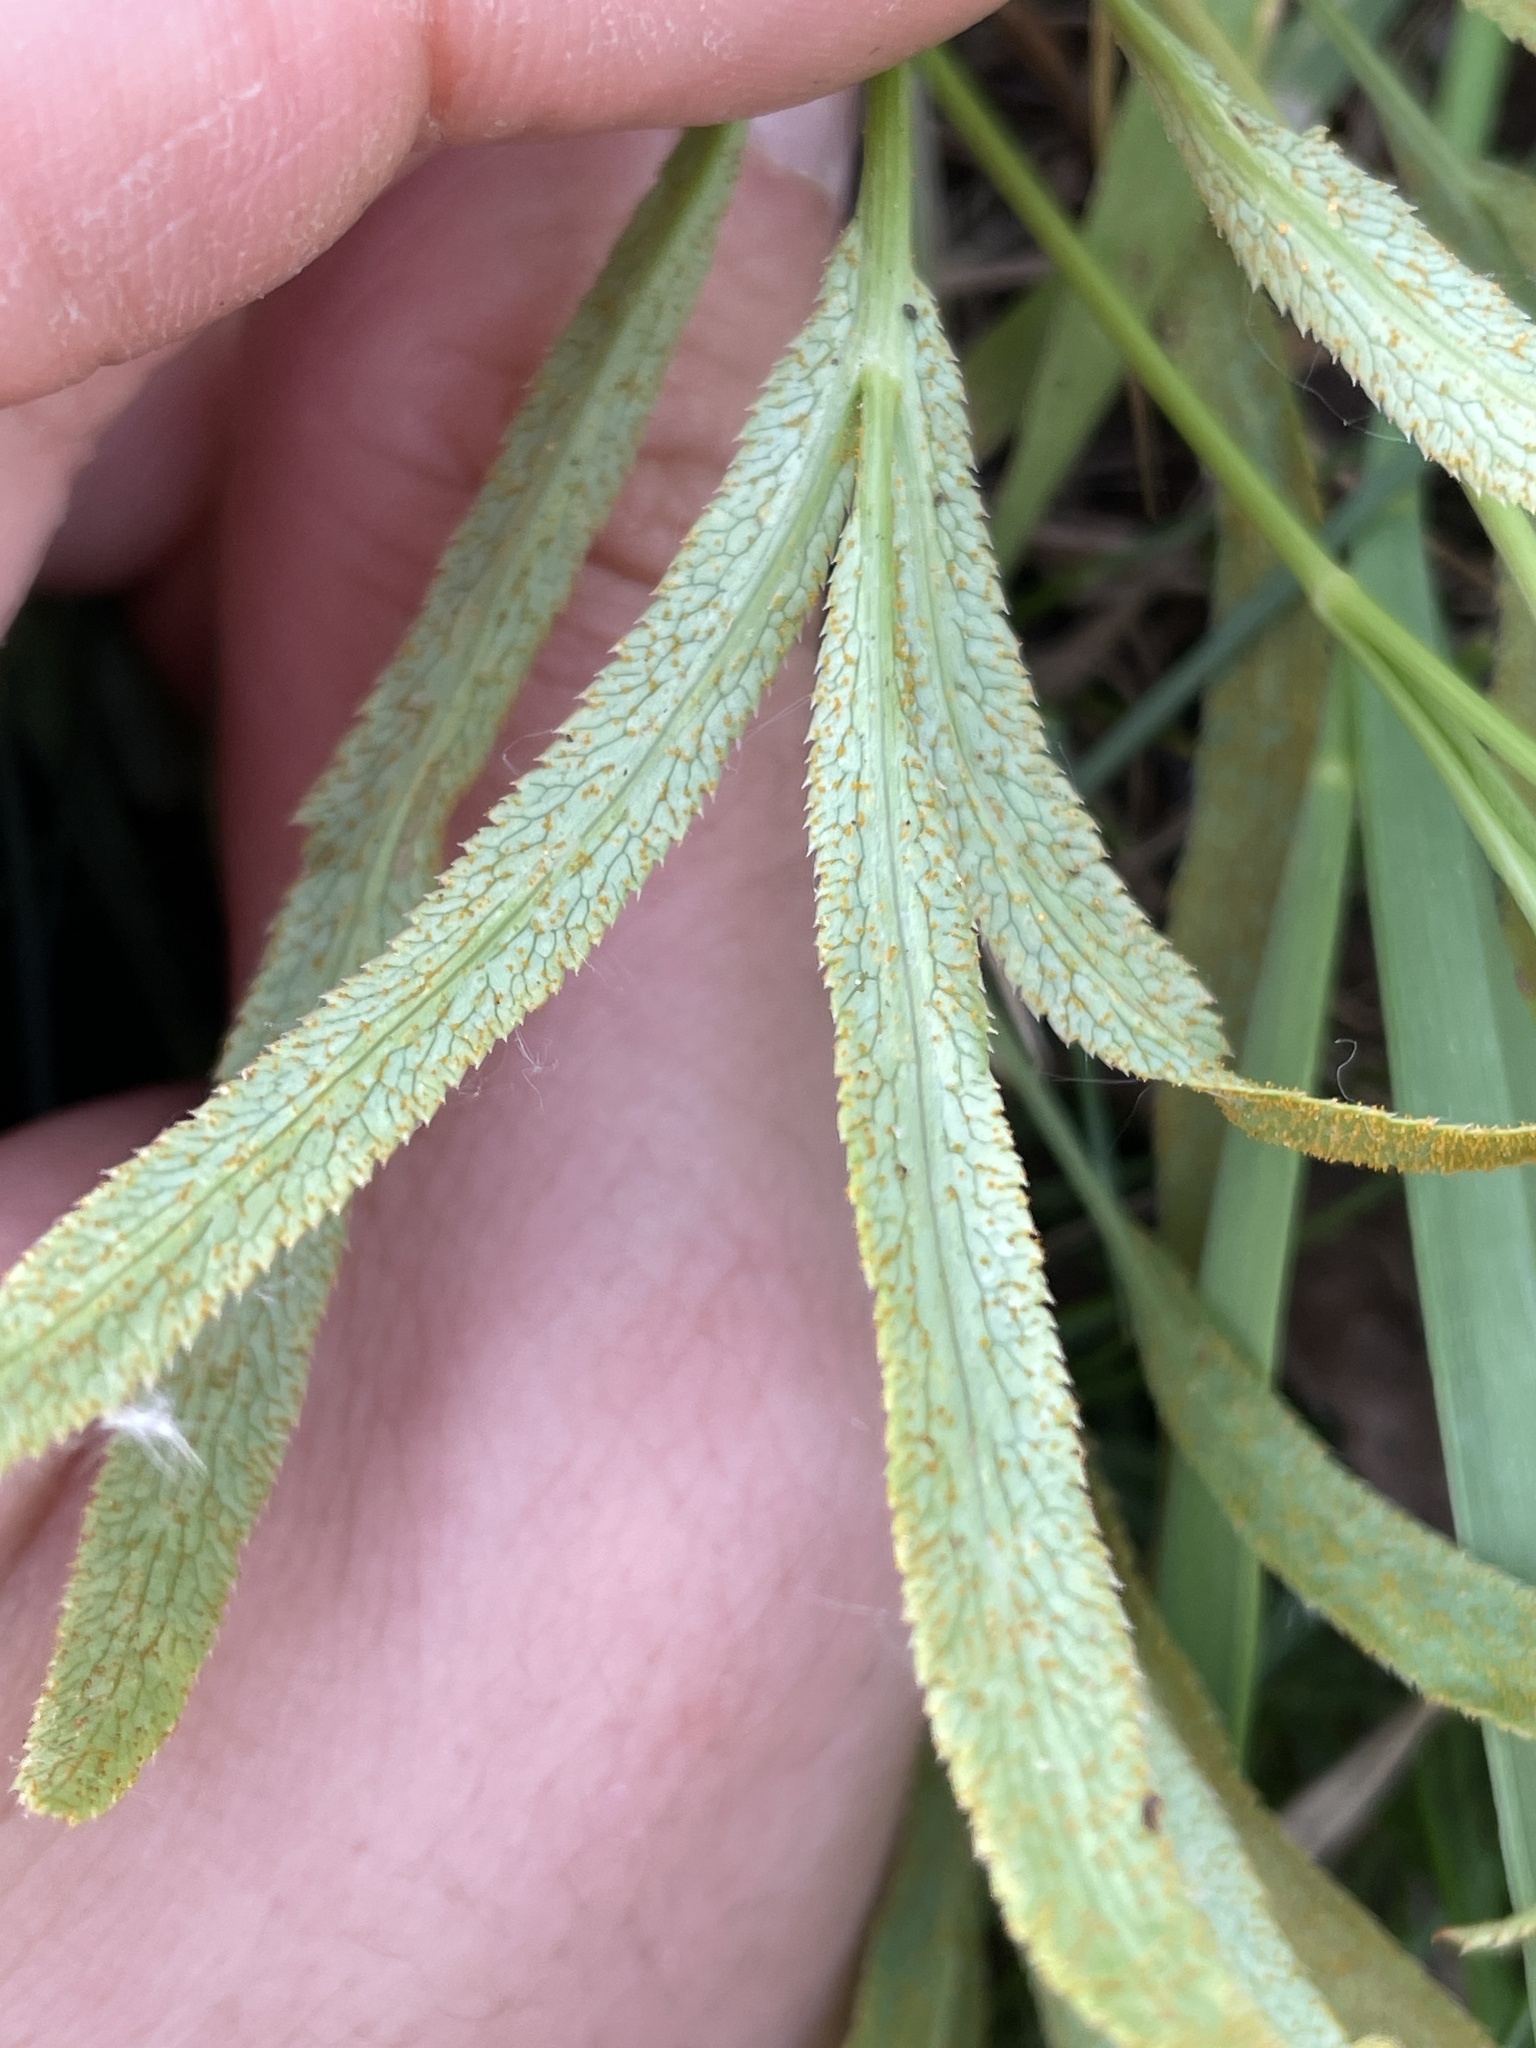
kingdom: Fungi
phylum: Basidiomycota
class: Pucciniomycetes
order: Pucciniales
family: Pucciniaceae
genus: Puccinia
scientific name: Puccinia sii-falcariae
